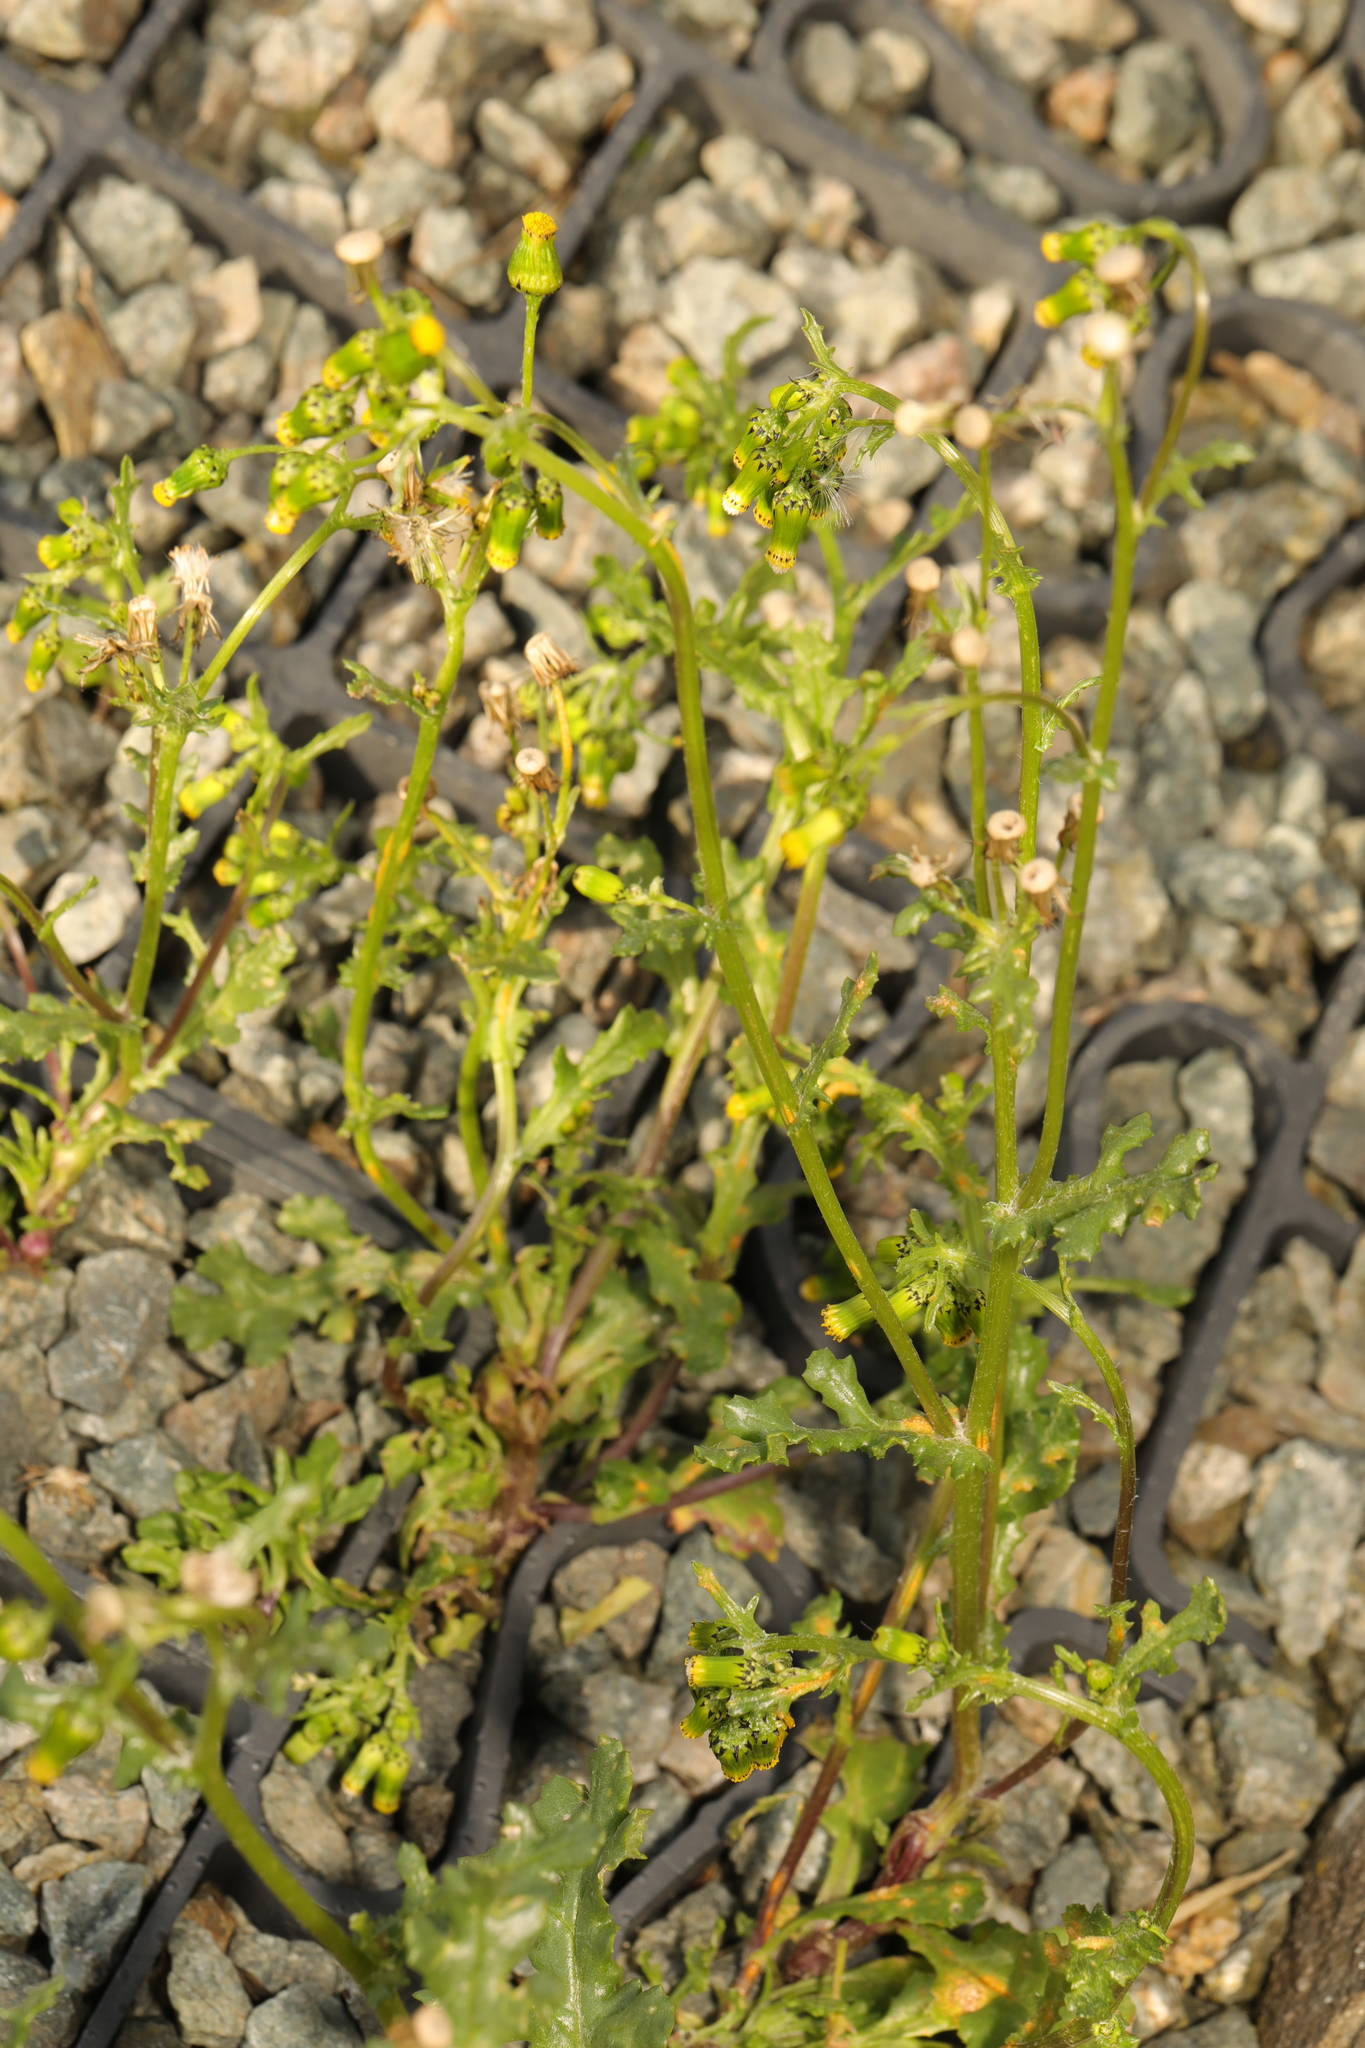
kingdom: Plantae
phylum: Tracheophyta
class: Magnoliopsida
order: Asterales
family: Asteraceae
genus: Senecio
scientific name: Senecio vulgaris
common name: Old-man-in-the-spring
